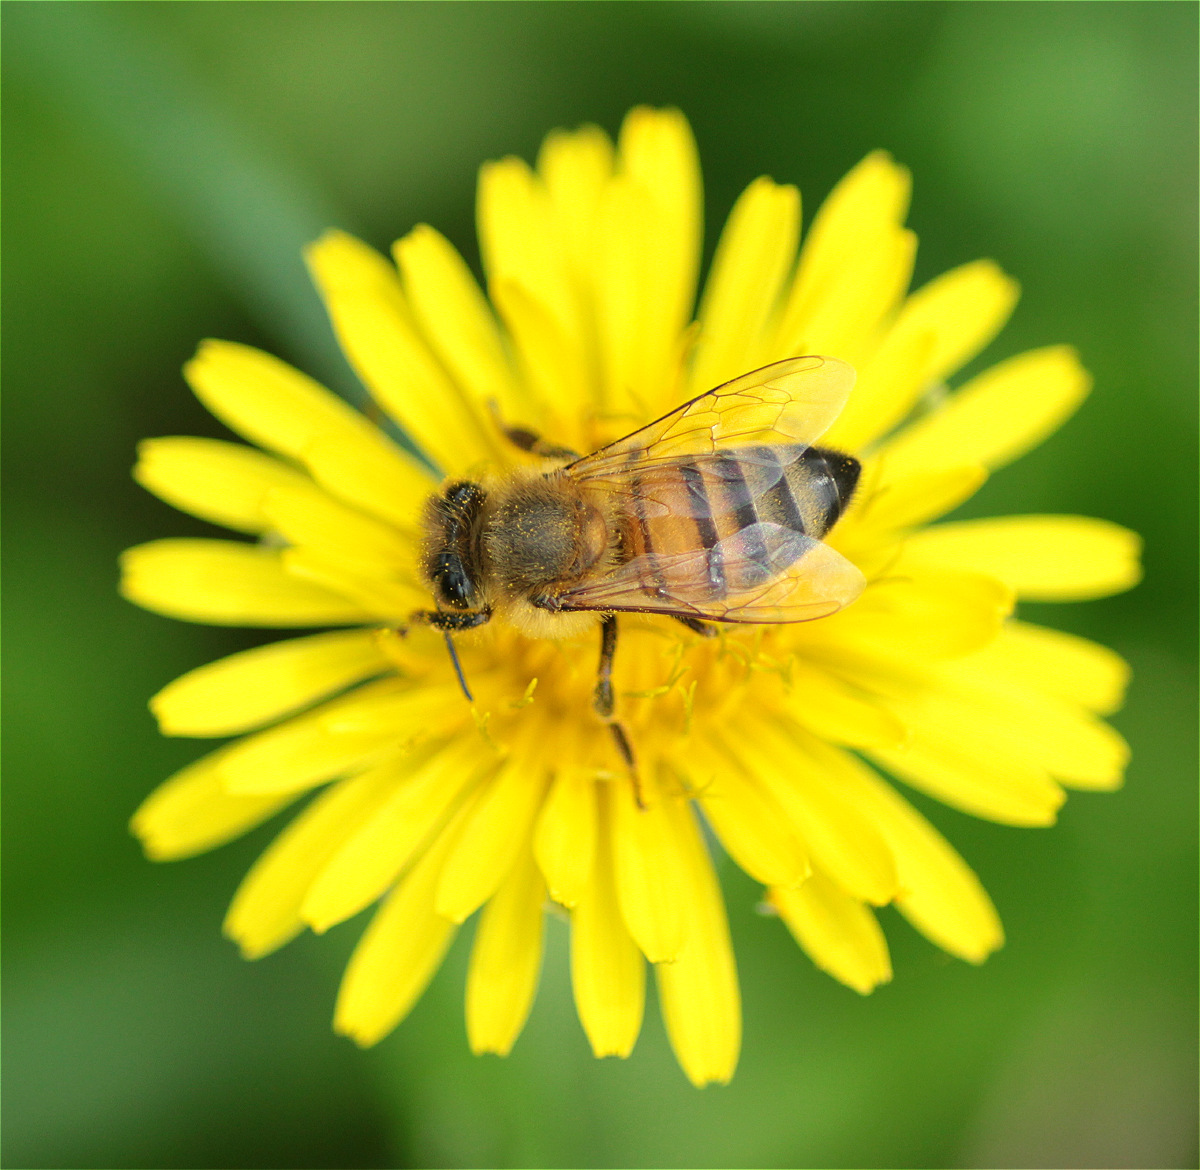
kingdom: Animalia
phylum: Arthropoda
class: Insecta
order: Hymenoptera
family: Apidae
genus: Apis
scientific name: Apis mellifera
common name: Honey bee
